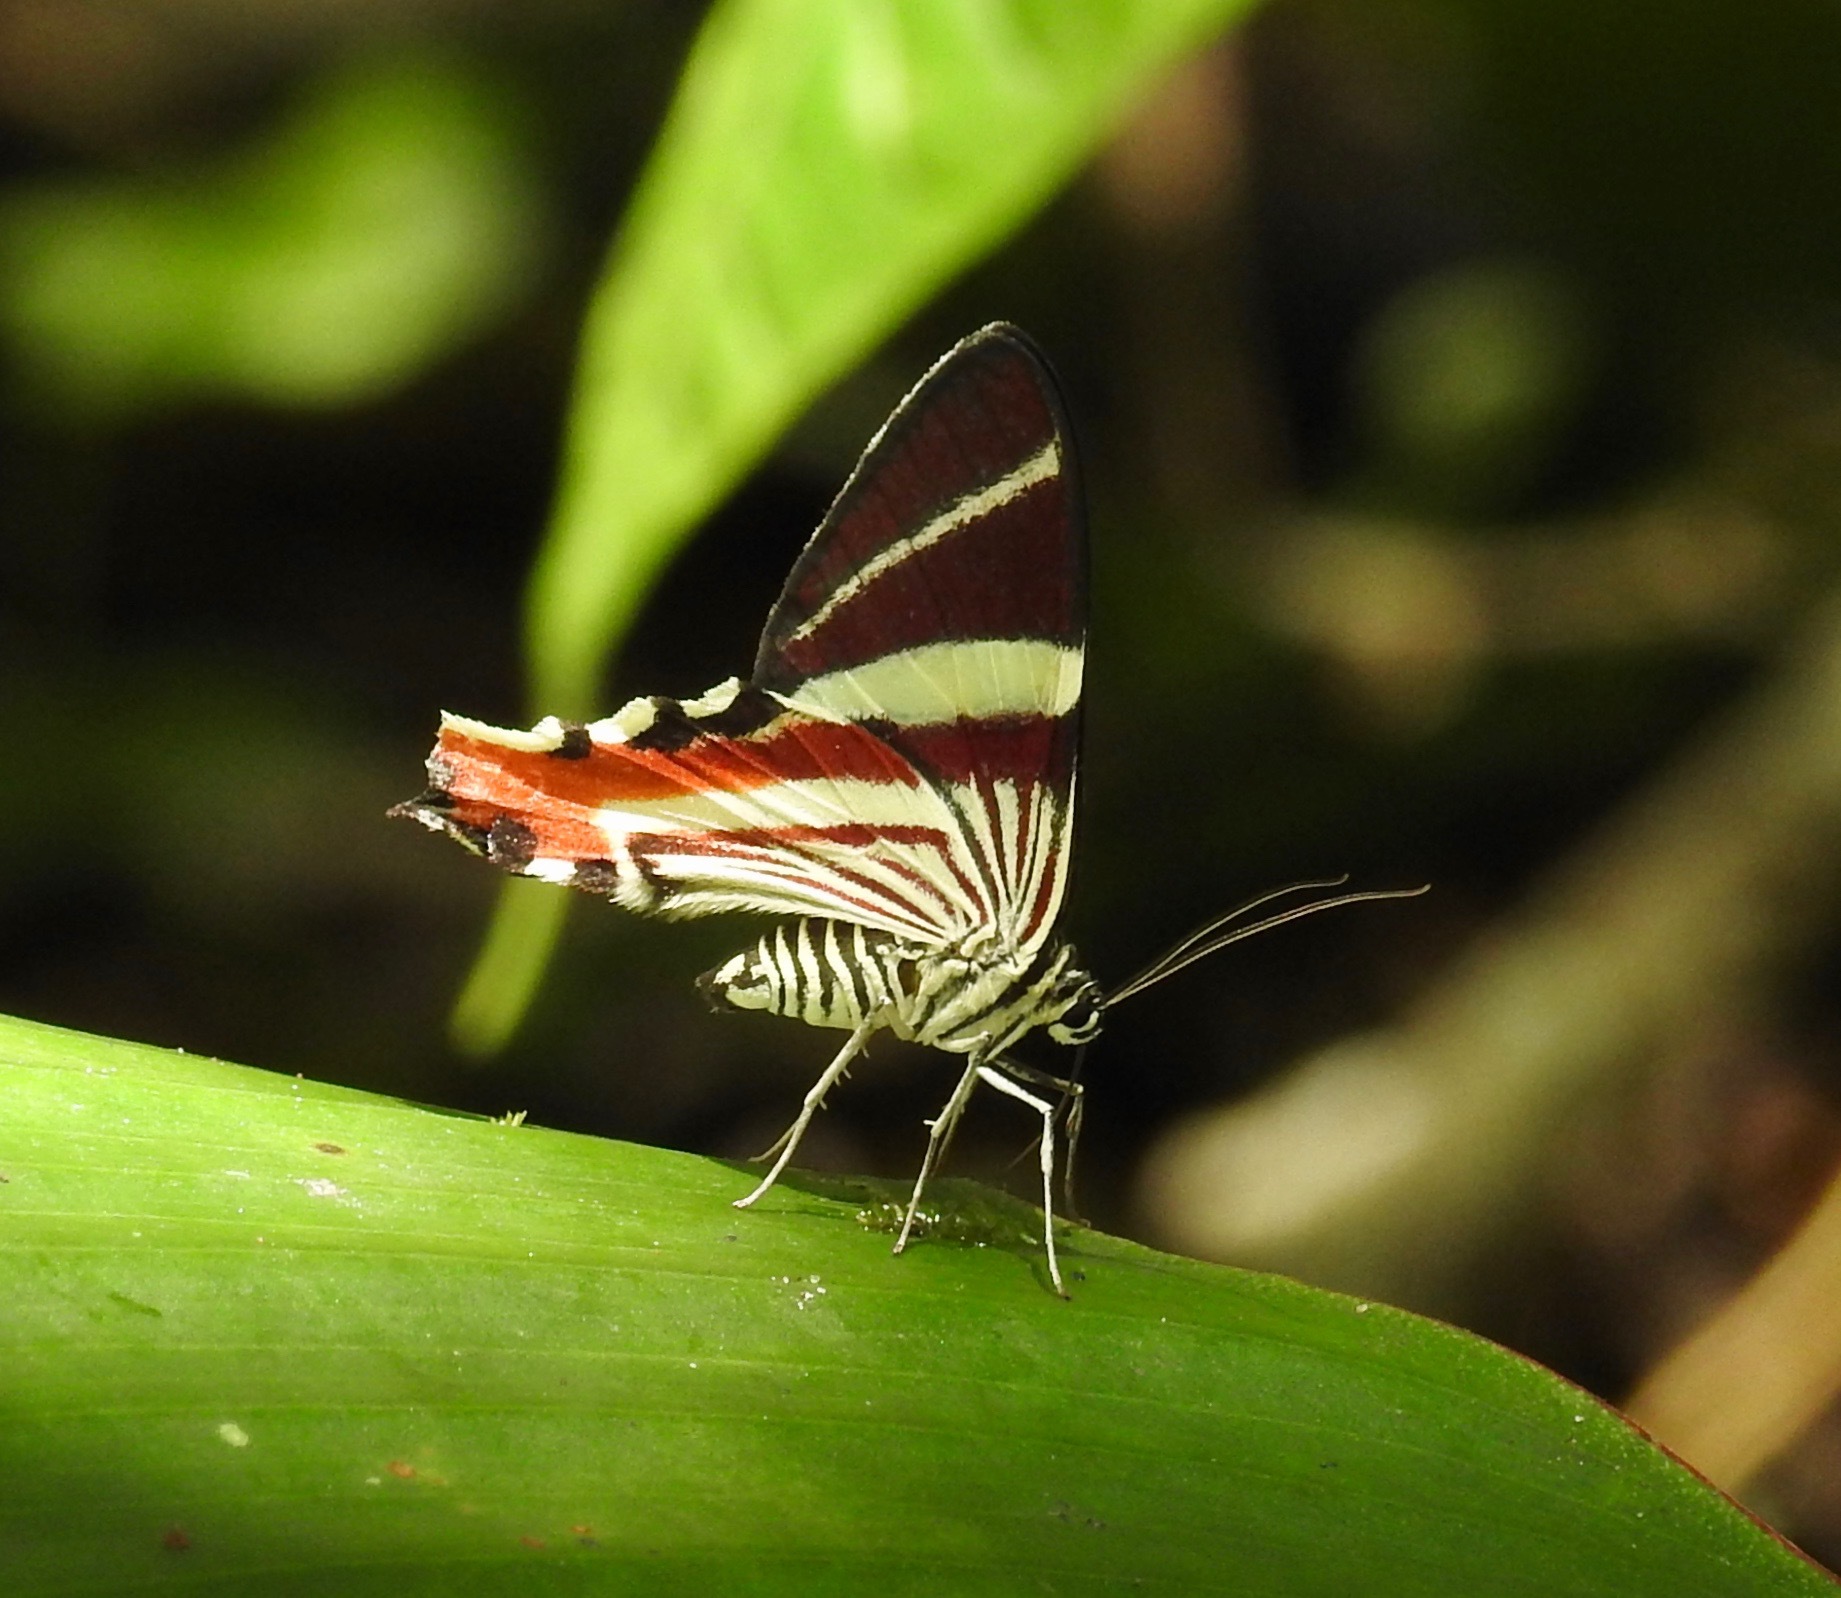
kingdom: Animalia
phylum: Arthropoda
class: Insecta
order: Lepidoptera
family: Geometridae
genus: Erateina
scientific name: Erateina staudingeri
